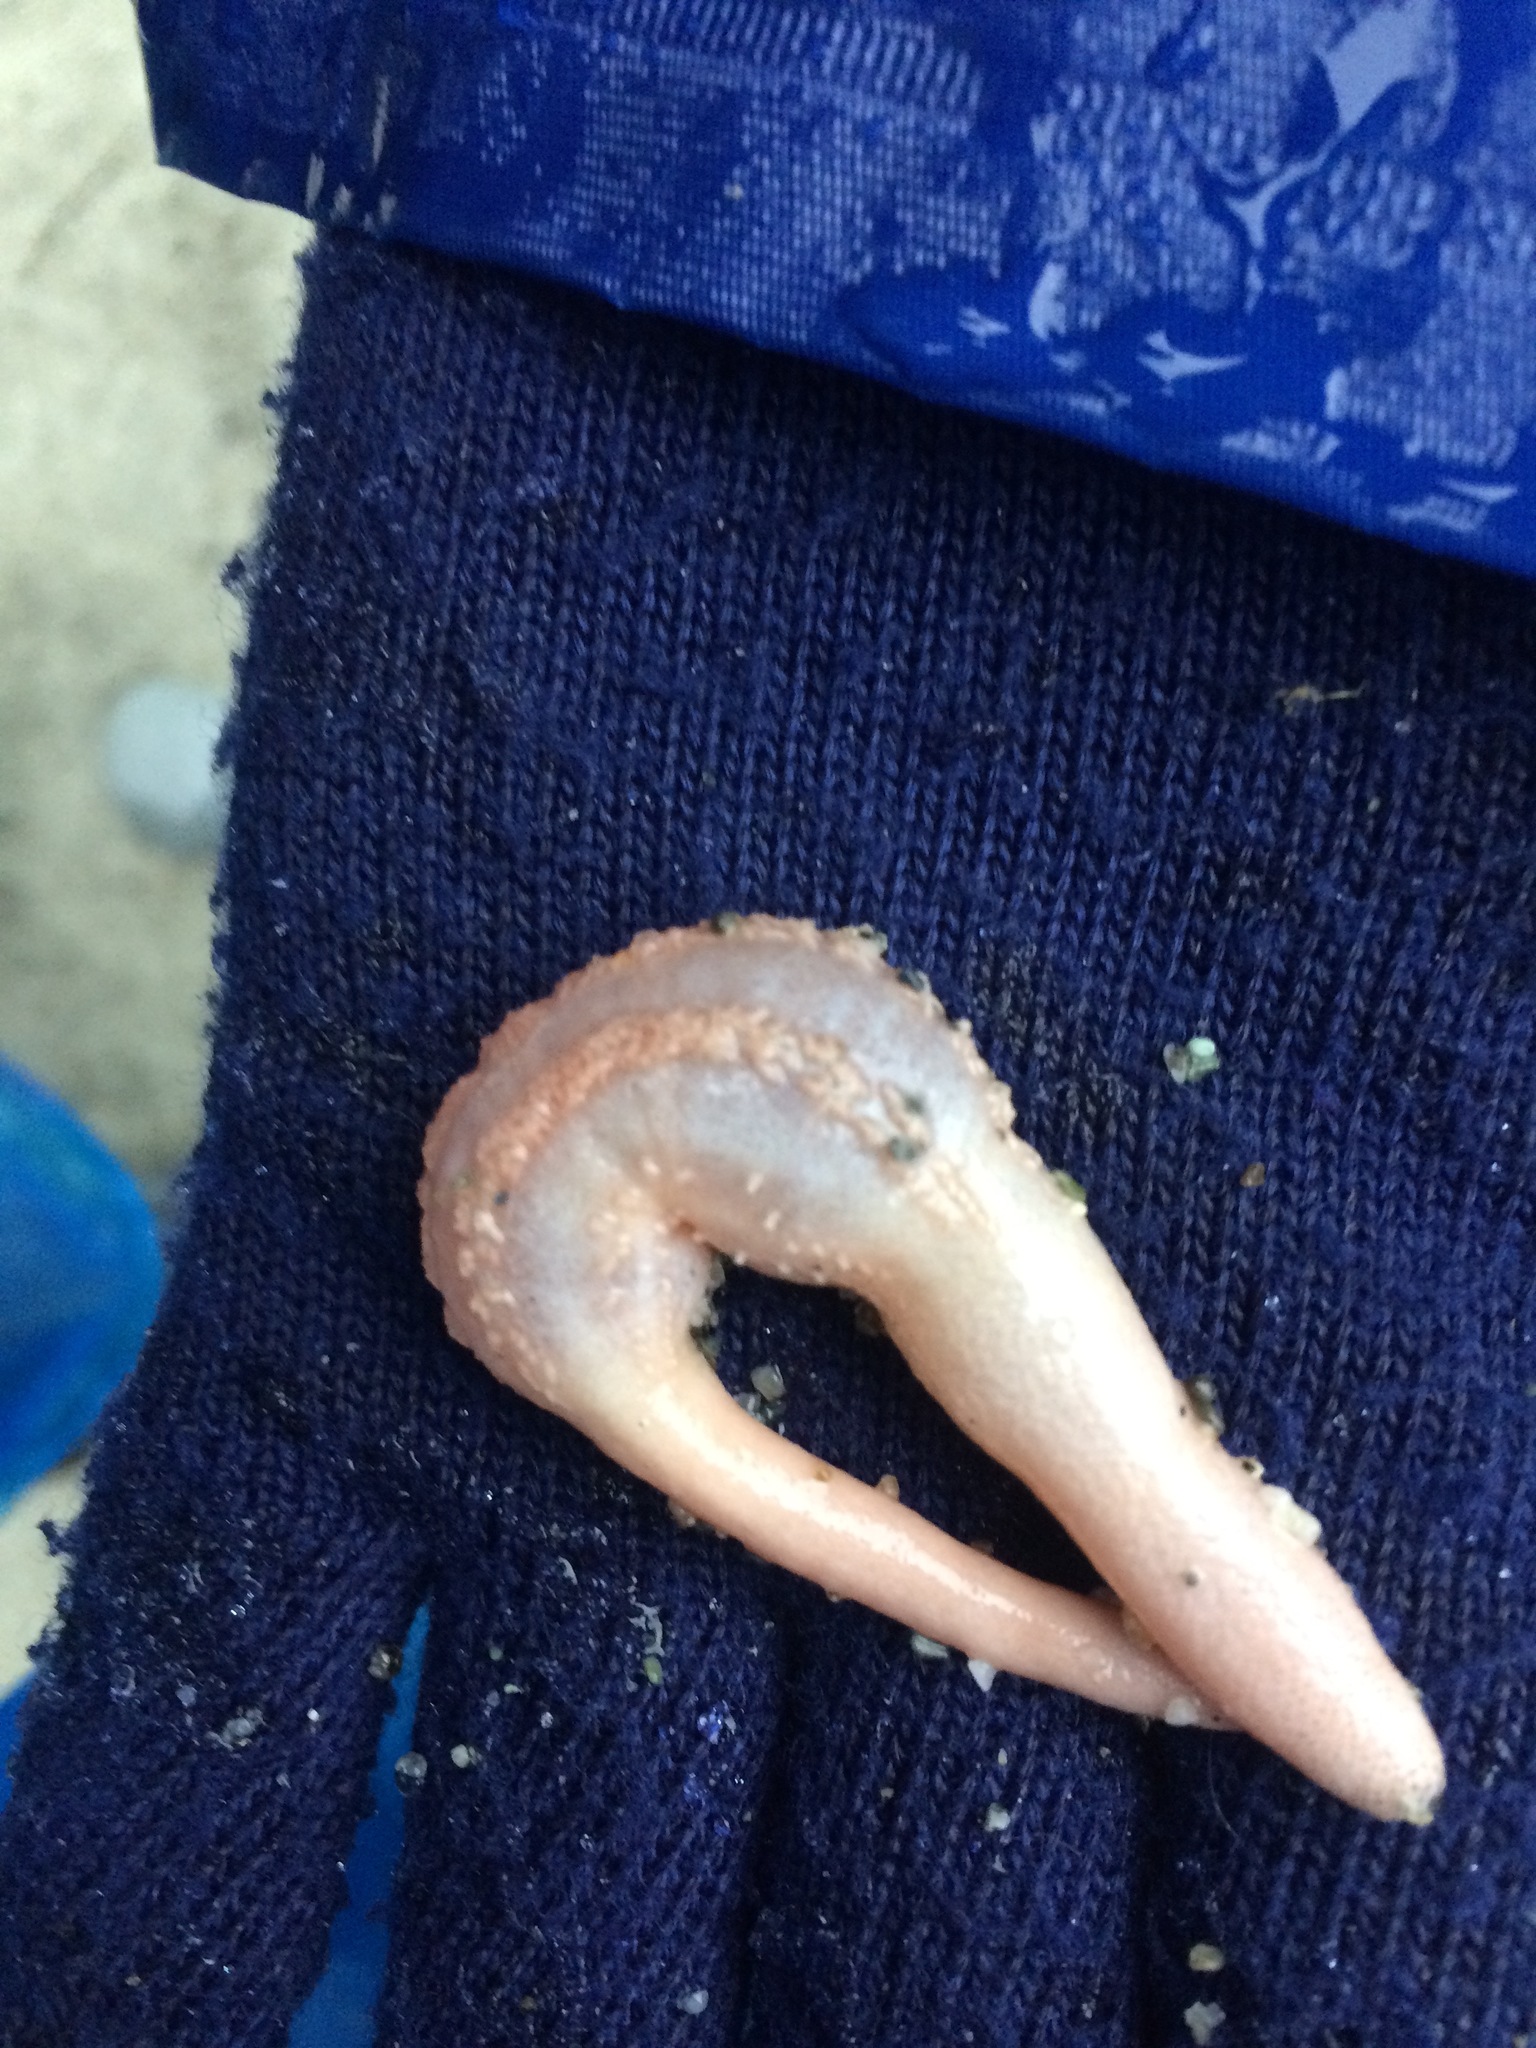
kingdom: Animalia
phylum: Echinodermata
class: Holothuroidea
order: Dendrochirotida
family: Heterothyonidae
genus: Heterothyone
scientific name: Heterothyone ocnoides
